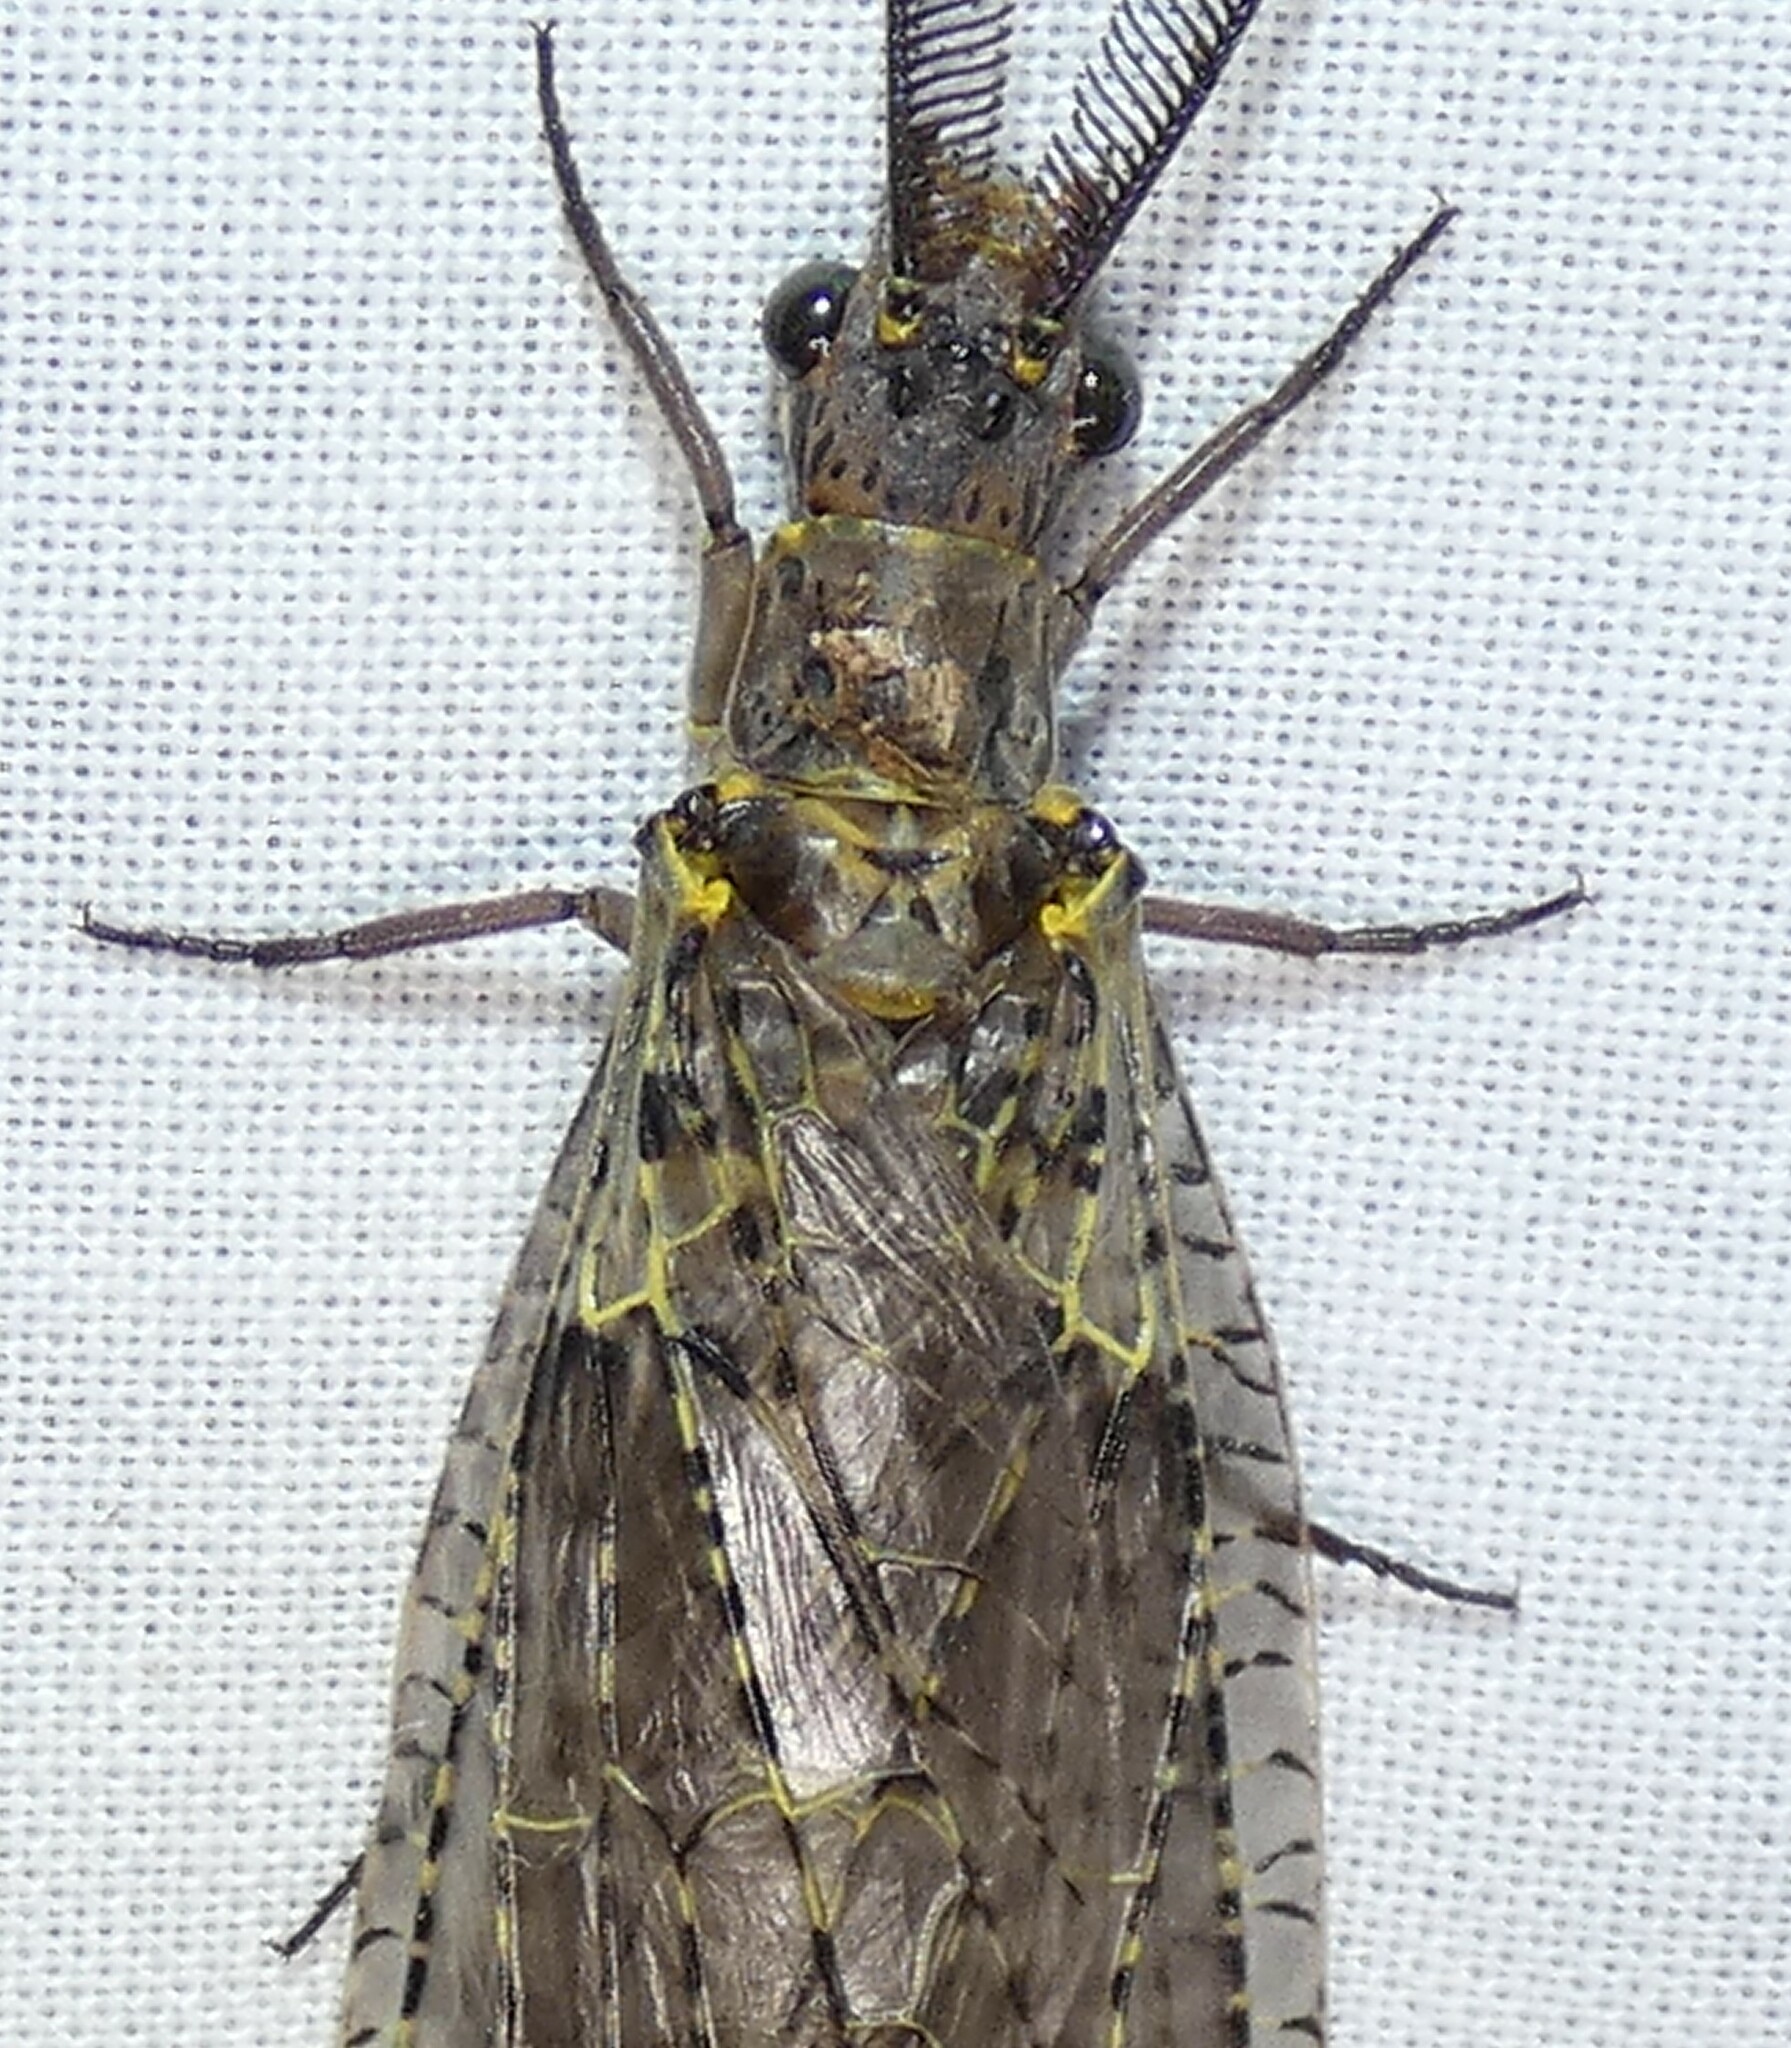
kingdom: Animalia
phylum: Arthropoda
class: Insecta
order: Megaloptera
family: Corydalidae
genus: Chauliodes
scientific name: Chauliodes rastricornis
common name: Spring fishfly
